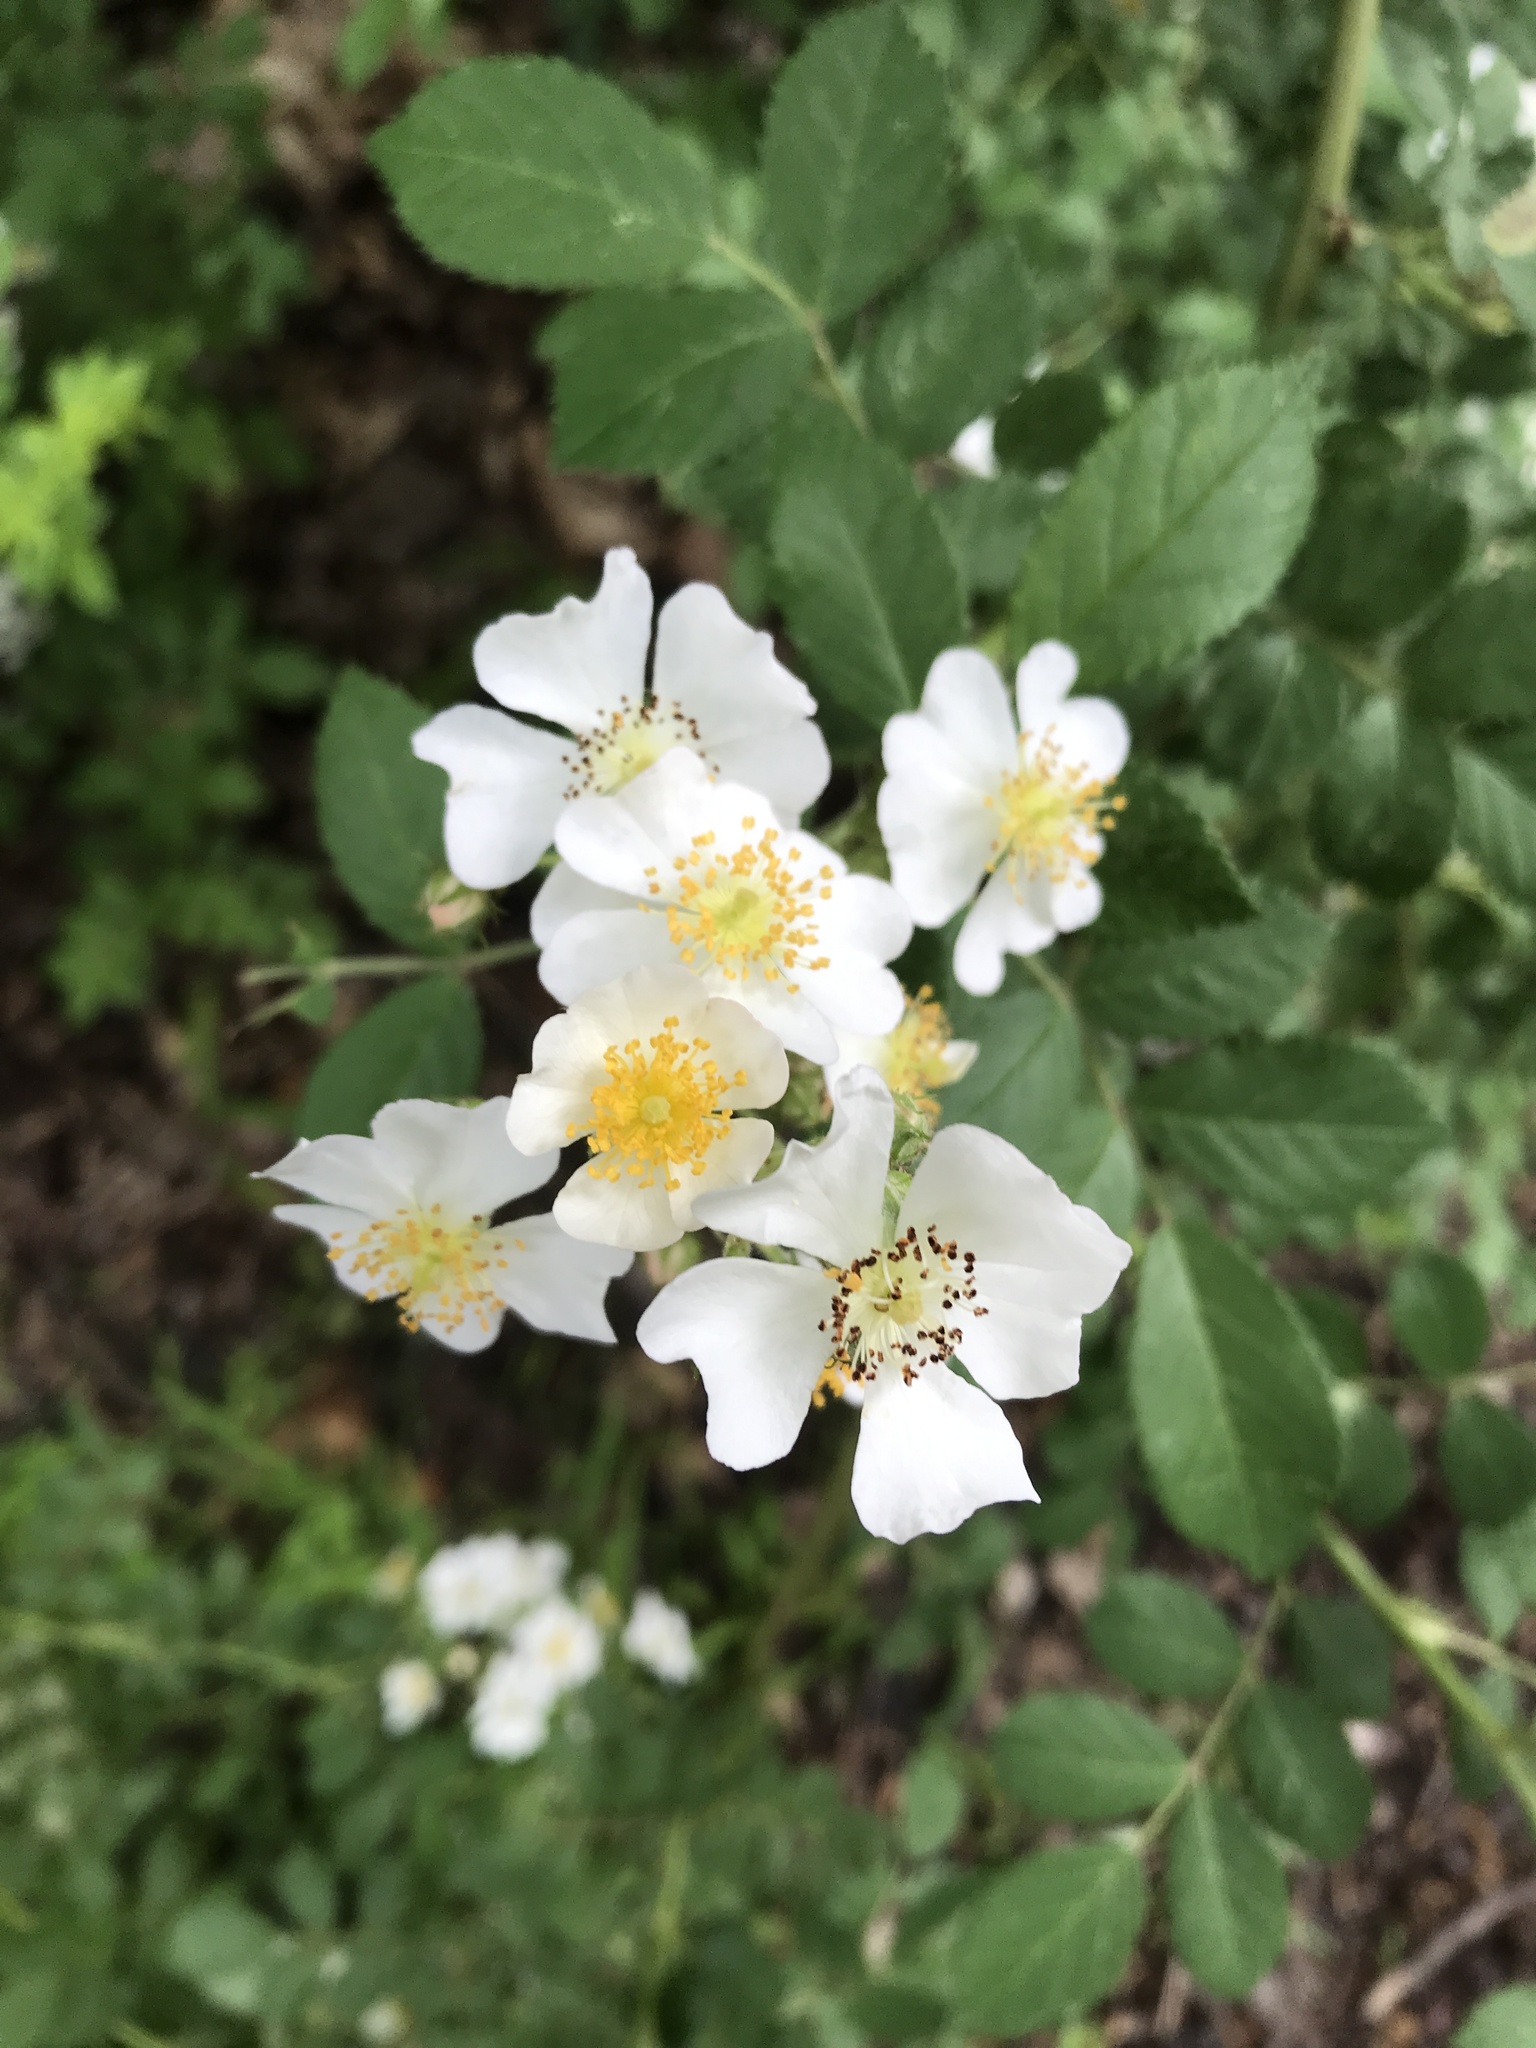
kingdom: Plantae
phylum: Tracheophyta
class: Magnoliopsida
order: Rosales
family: Rosaceae
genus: Rosa
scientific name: Rosa multiflora
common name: Multiflora rose
